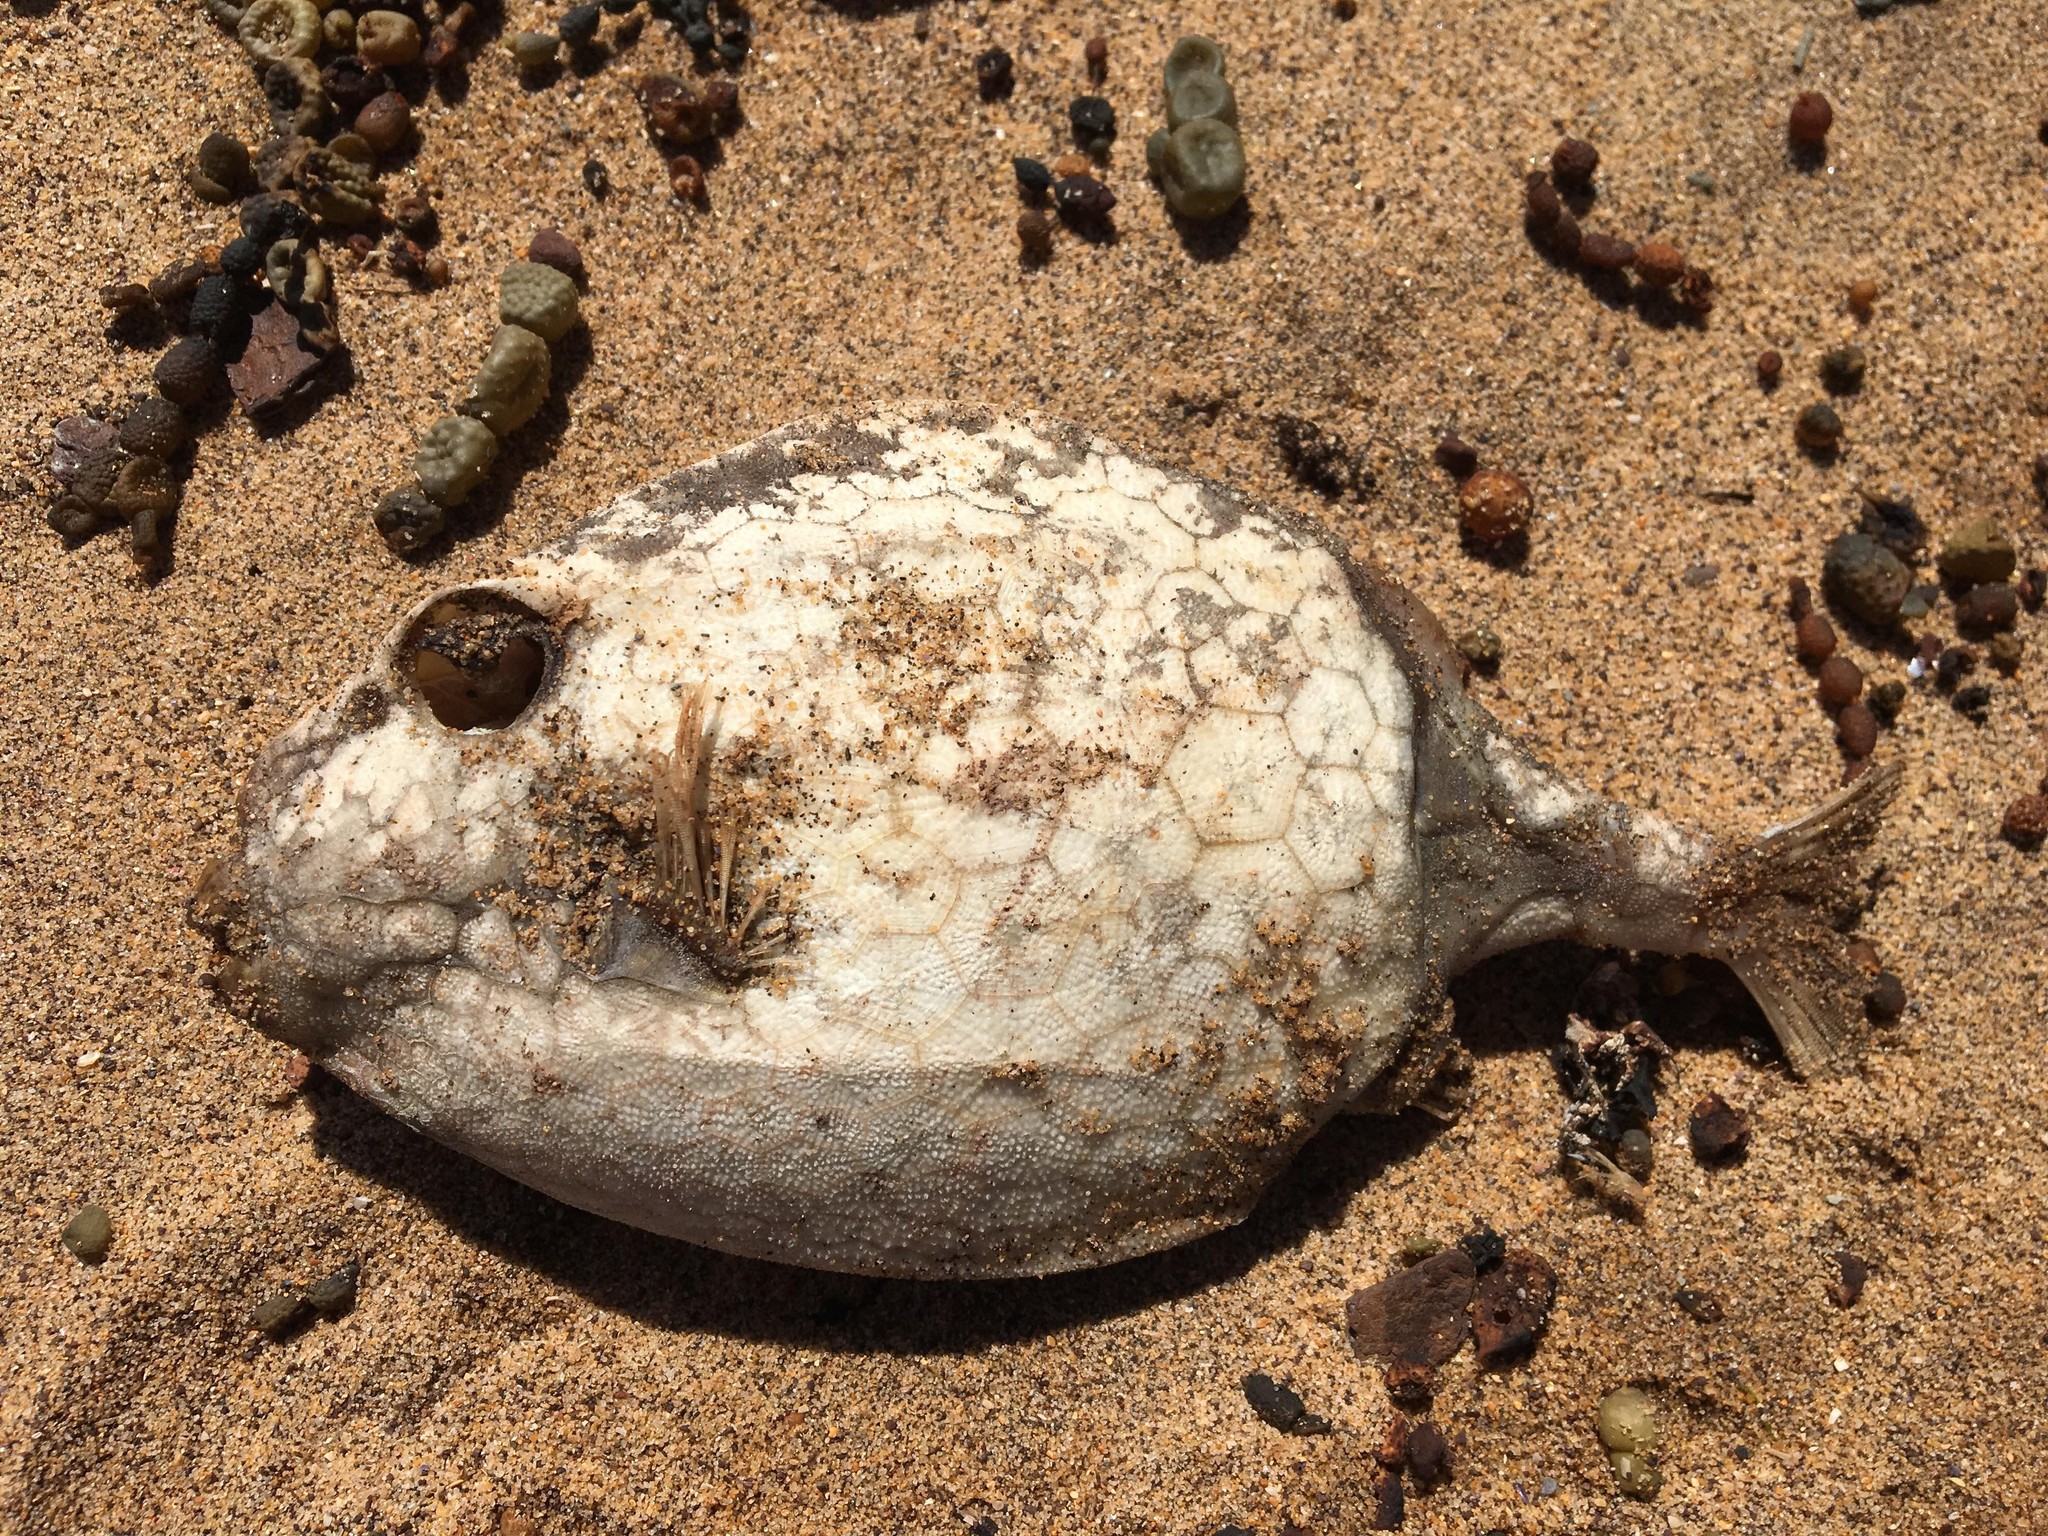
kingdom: Animalia
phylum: Chordata
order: Tetraodontiformes
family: Aracanidae
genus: Anoplocapros
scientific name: Anoplocapros inermis
